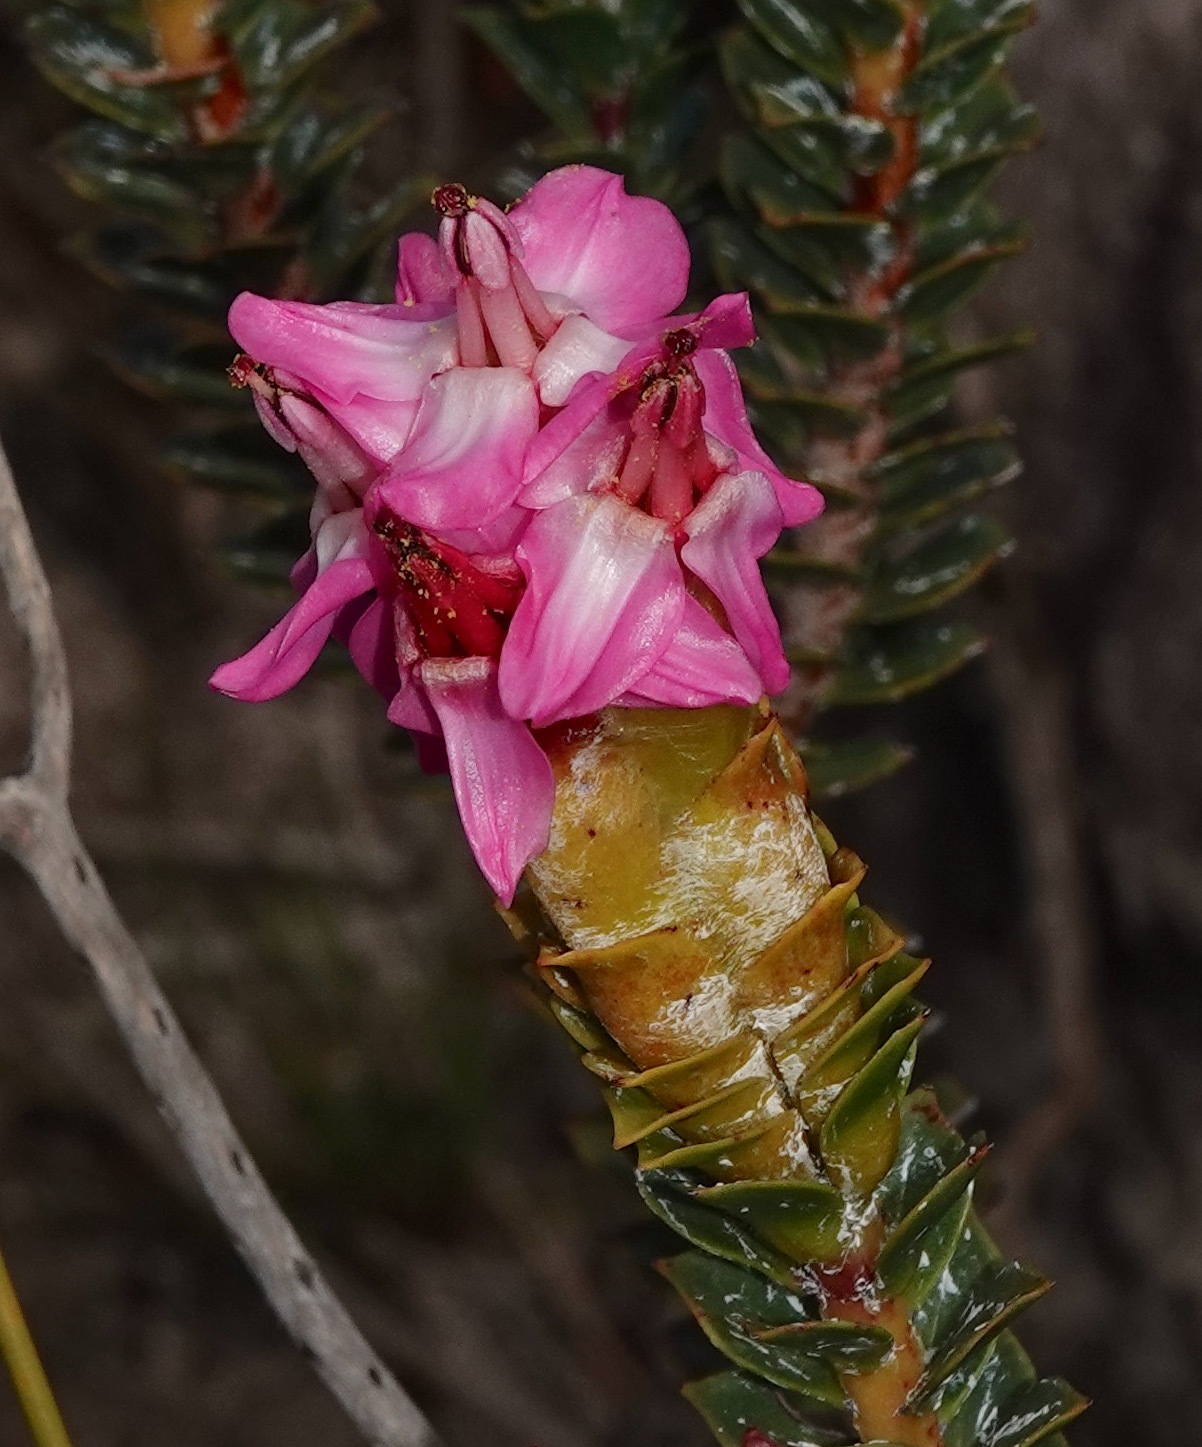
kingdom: Plantae
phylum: Tracheophyta
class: Magnoliopsida
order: Myrtales
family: Penaeaceae
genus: Saltera
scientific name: Saltera sarcocolla
